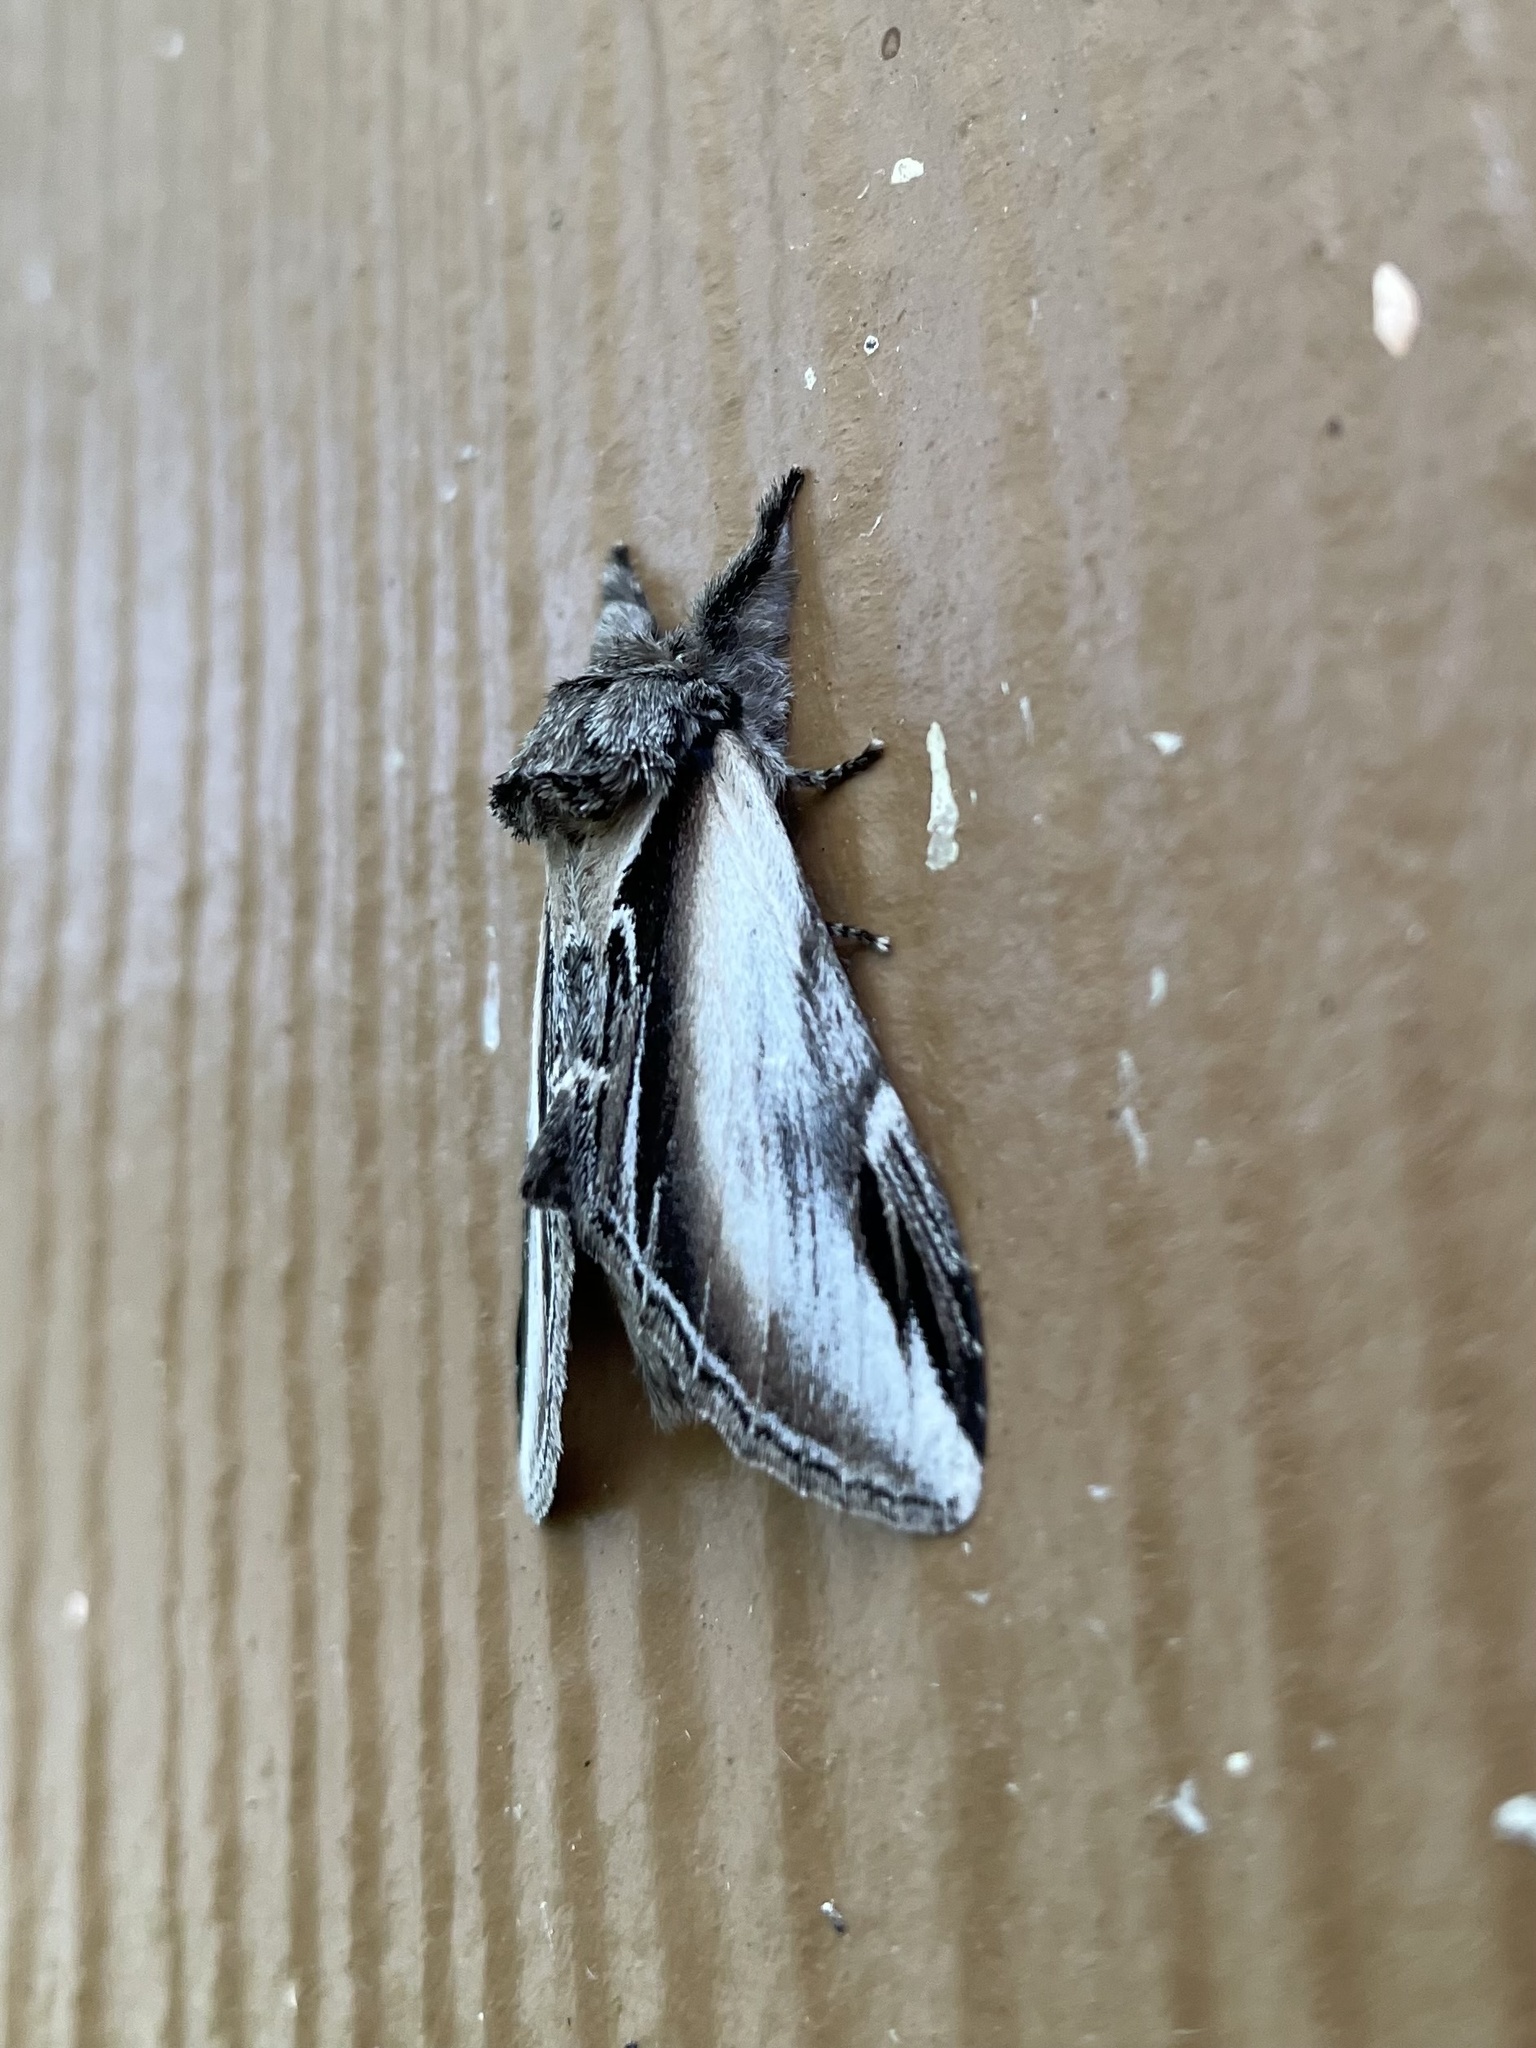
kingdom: Animalia
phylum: Arthropoda
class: Insecta
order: Lepidoptera
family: Notodontidae
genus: Pheosia
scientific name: Pheosia rimosa
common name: Black-rimmed prominent
